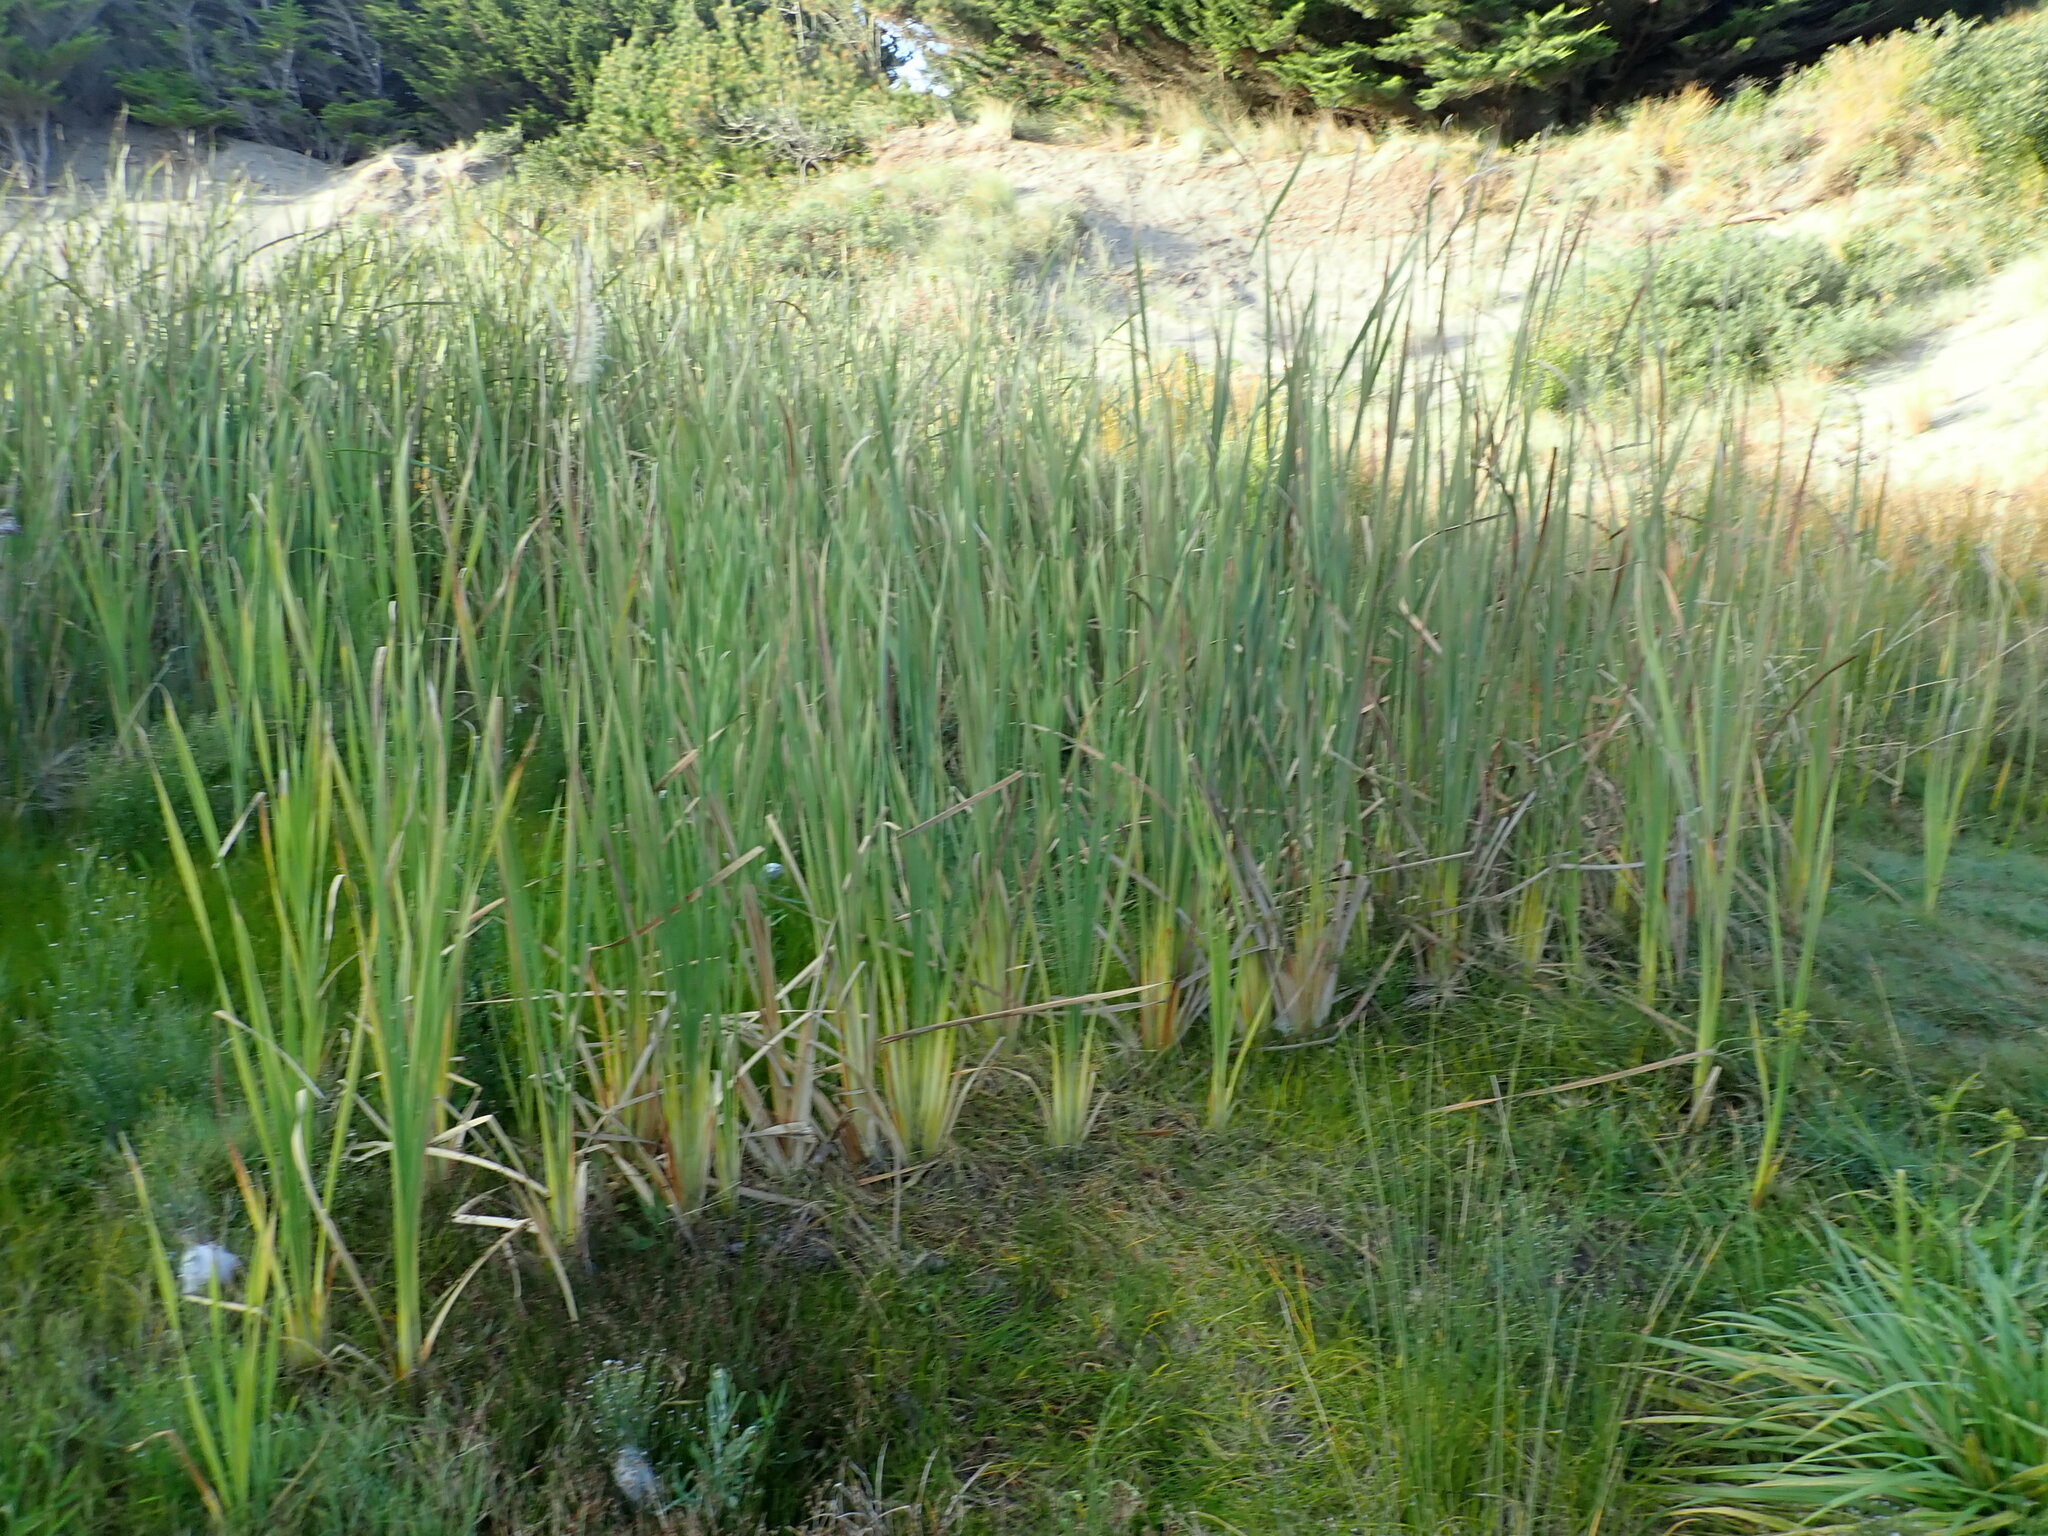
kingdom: Plantae
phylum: Tracheophyta
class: Liliopsida
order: Poales
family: Typhaceae
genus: Typha
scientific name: Typha orientalis
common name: Bullrush
